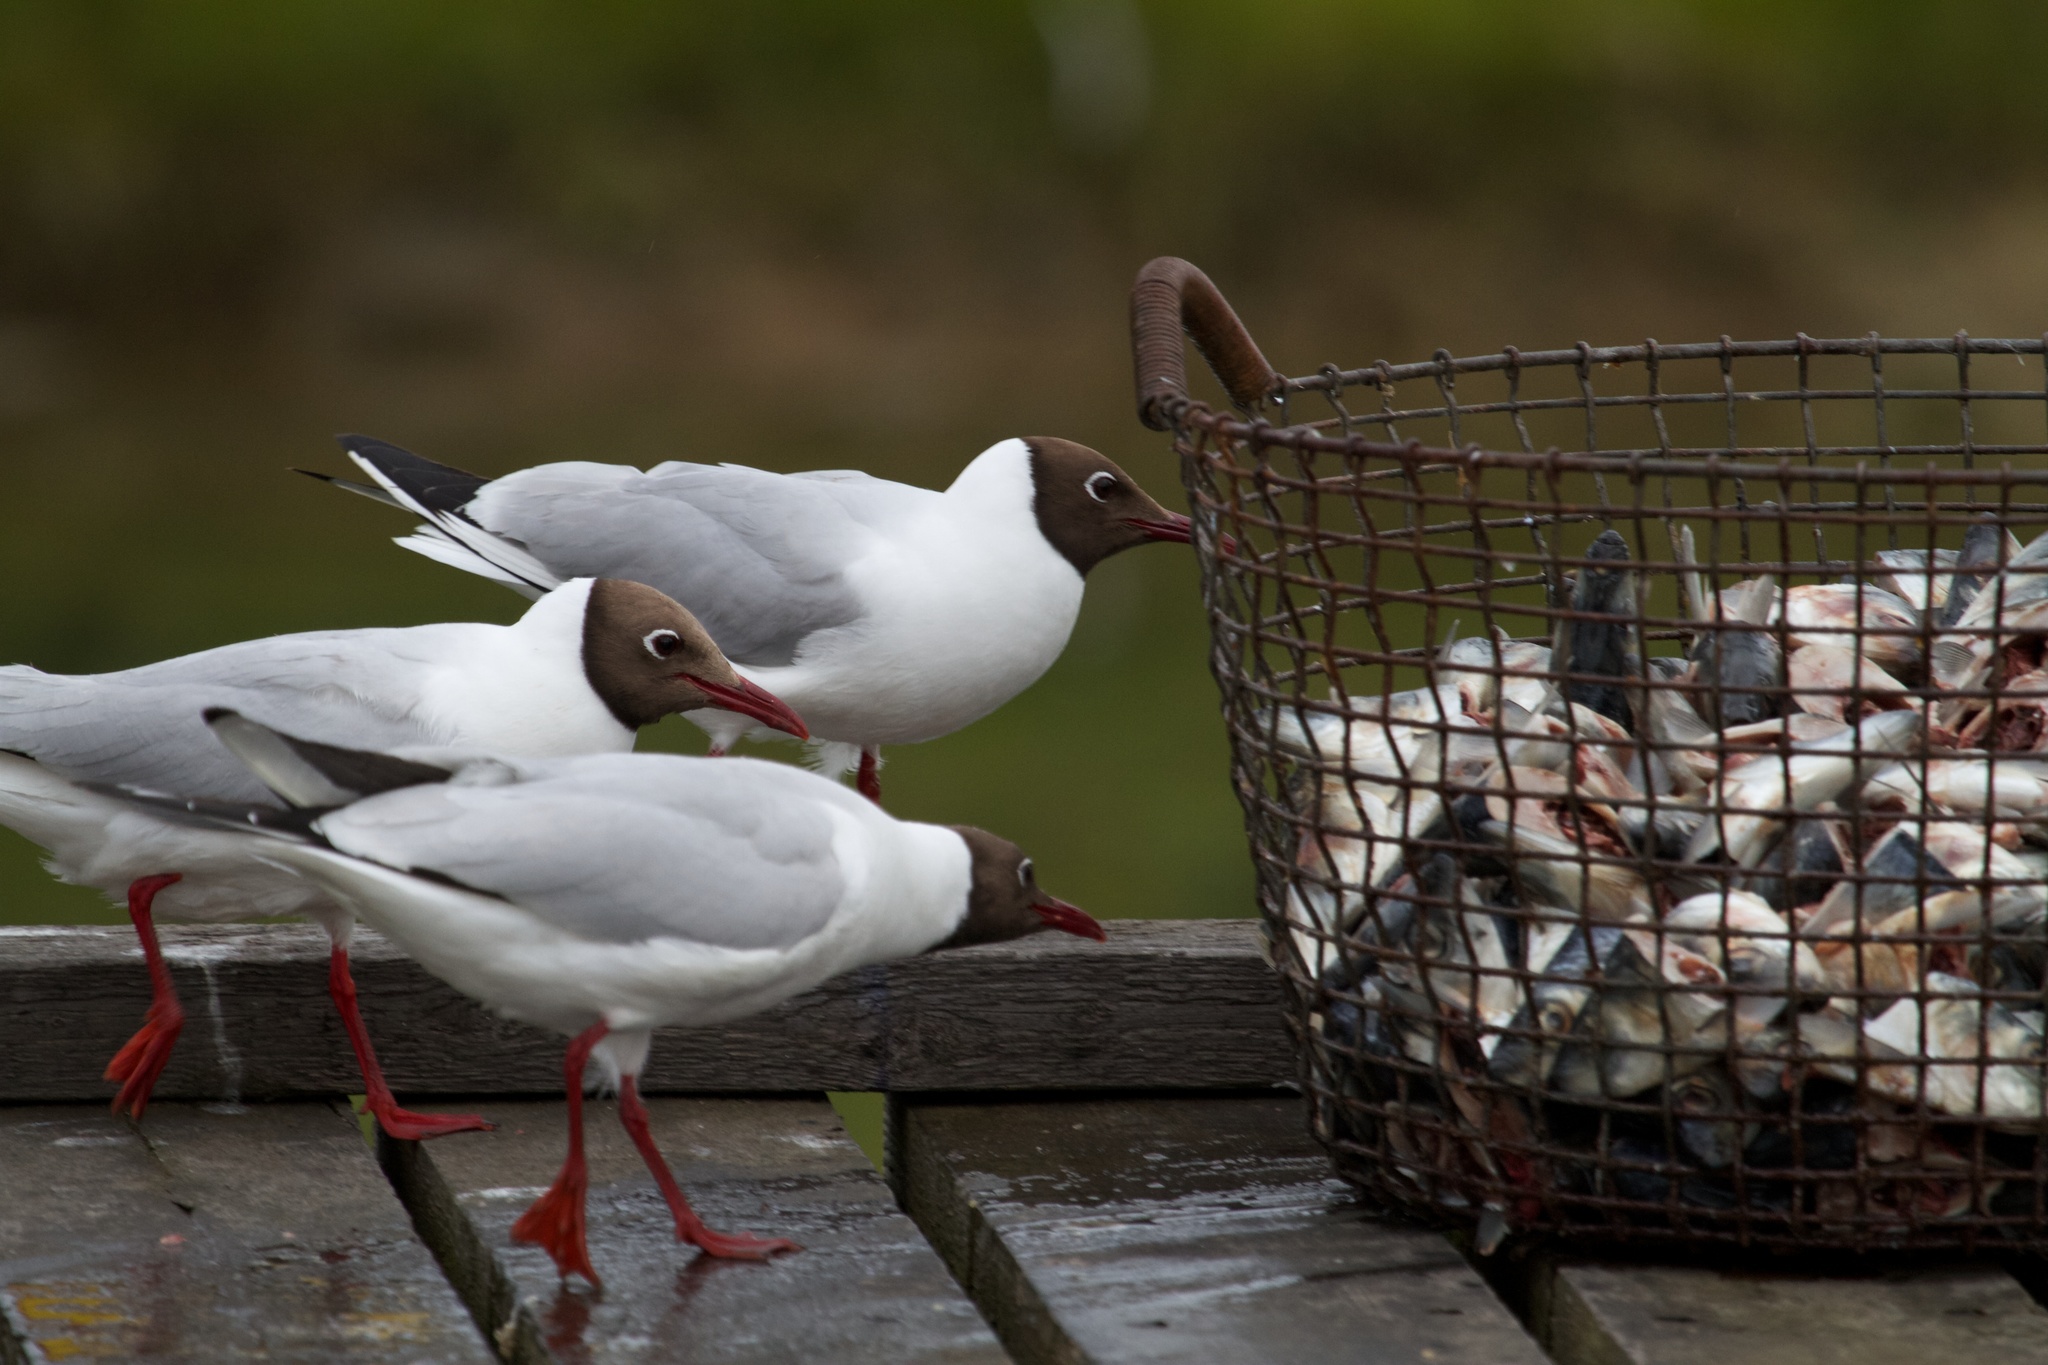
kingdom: Animalia
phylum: Chordata
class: Aves
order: Charadriiformes
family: Laridae
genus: Chroicocephalus
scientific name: Chroicocephalus ridibundus
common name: Black-headed gull
